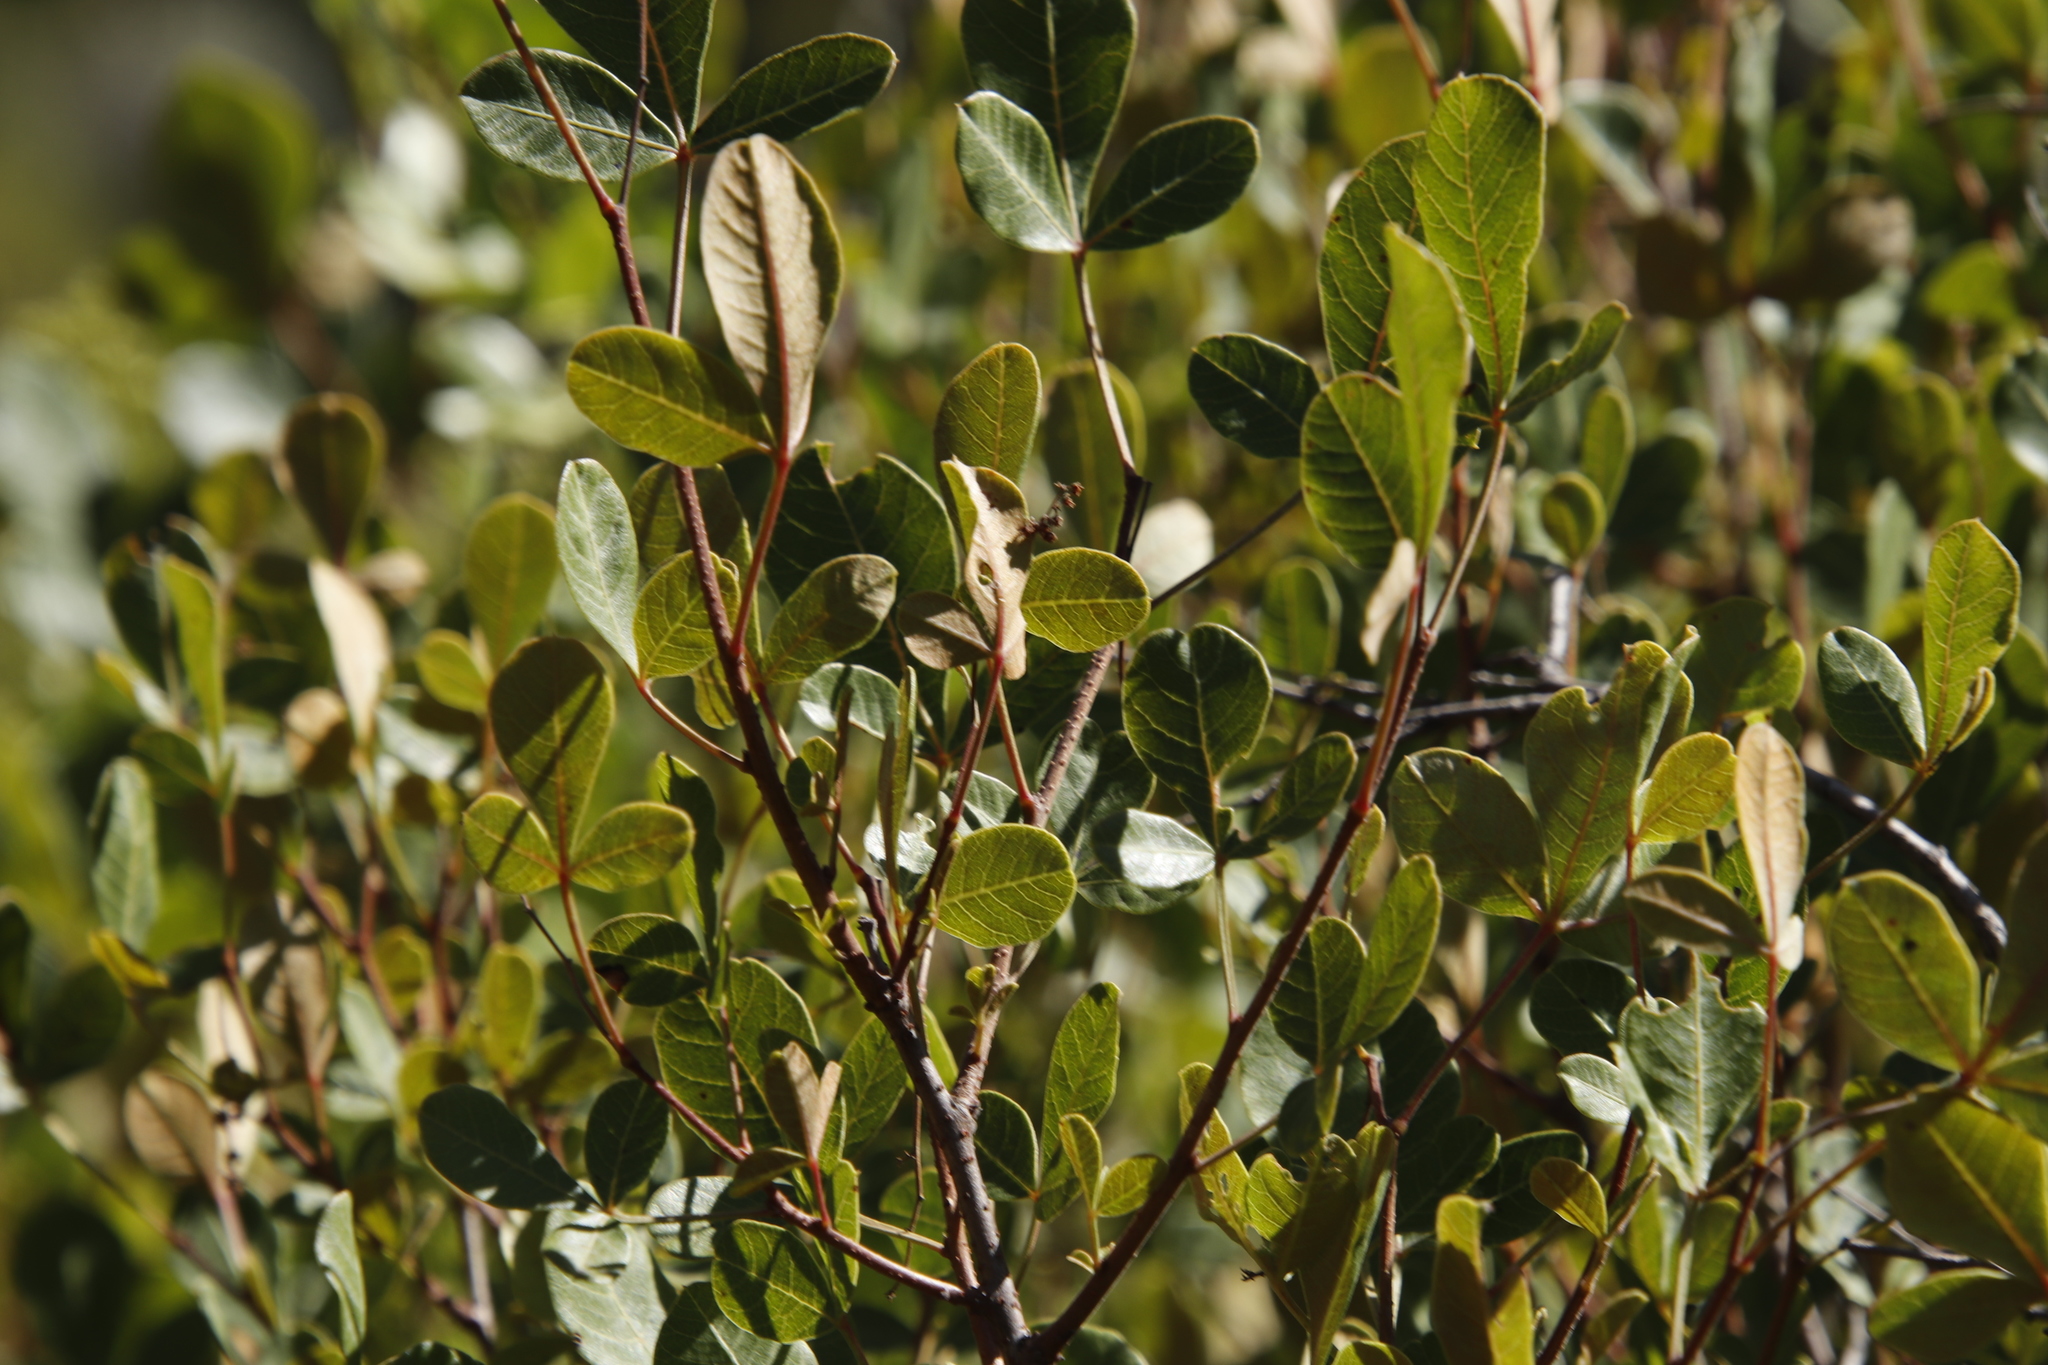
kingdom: Plantae
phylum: Tracheophyta
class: Magnoliopsida
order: Sapindales
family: Anacardiaceae
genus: Searsia
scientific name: Searsia divaricata
